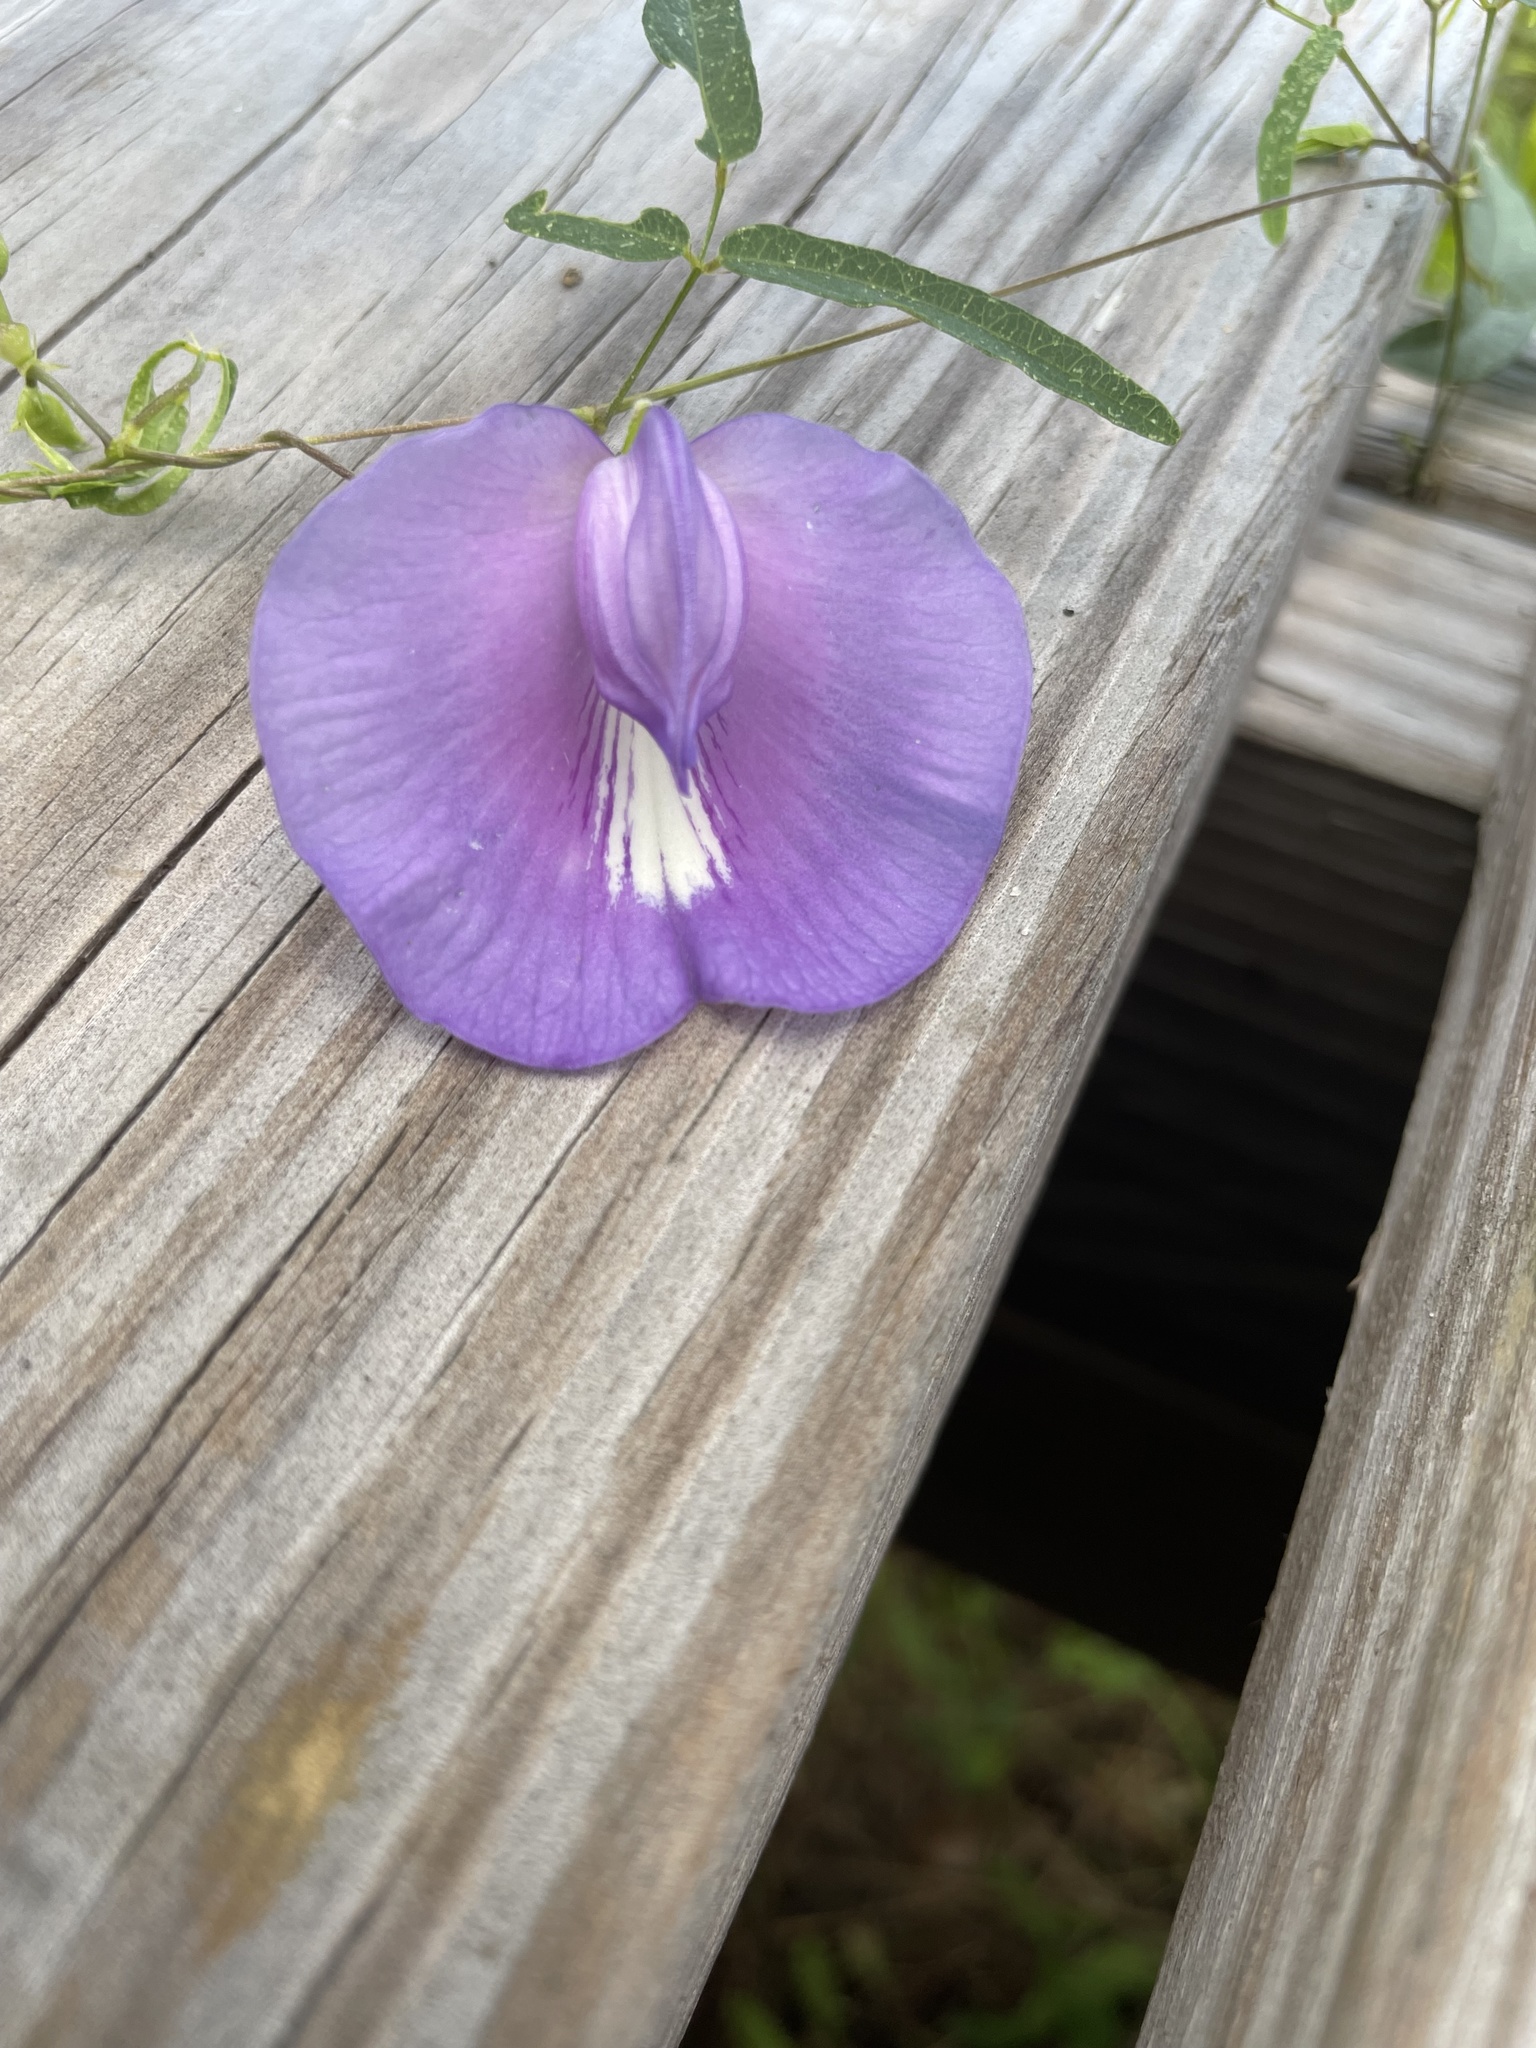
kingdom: Plantae
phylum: Tracheophyta
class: Magnoliopsida
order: Fabales
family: Fabaceae
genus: Centrosema
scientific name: Centrosema virginianum
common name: Butterfly-pea
